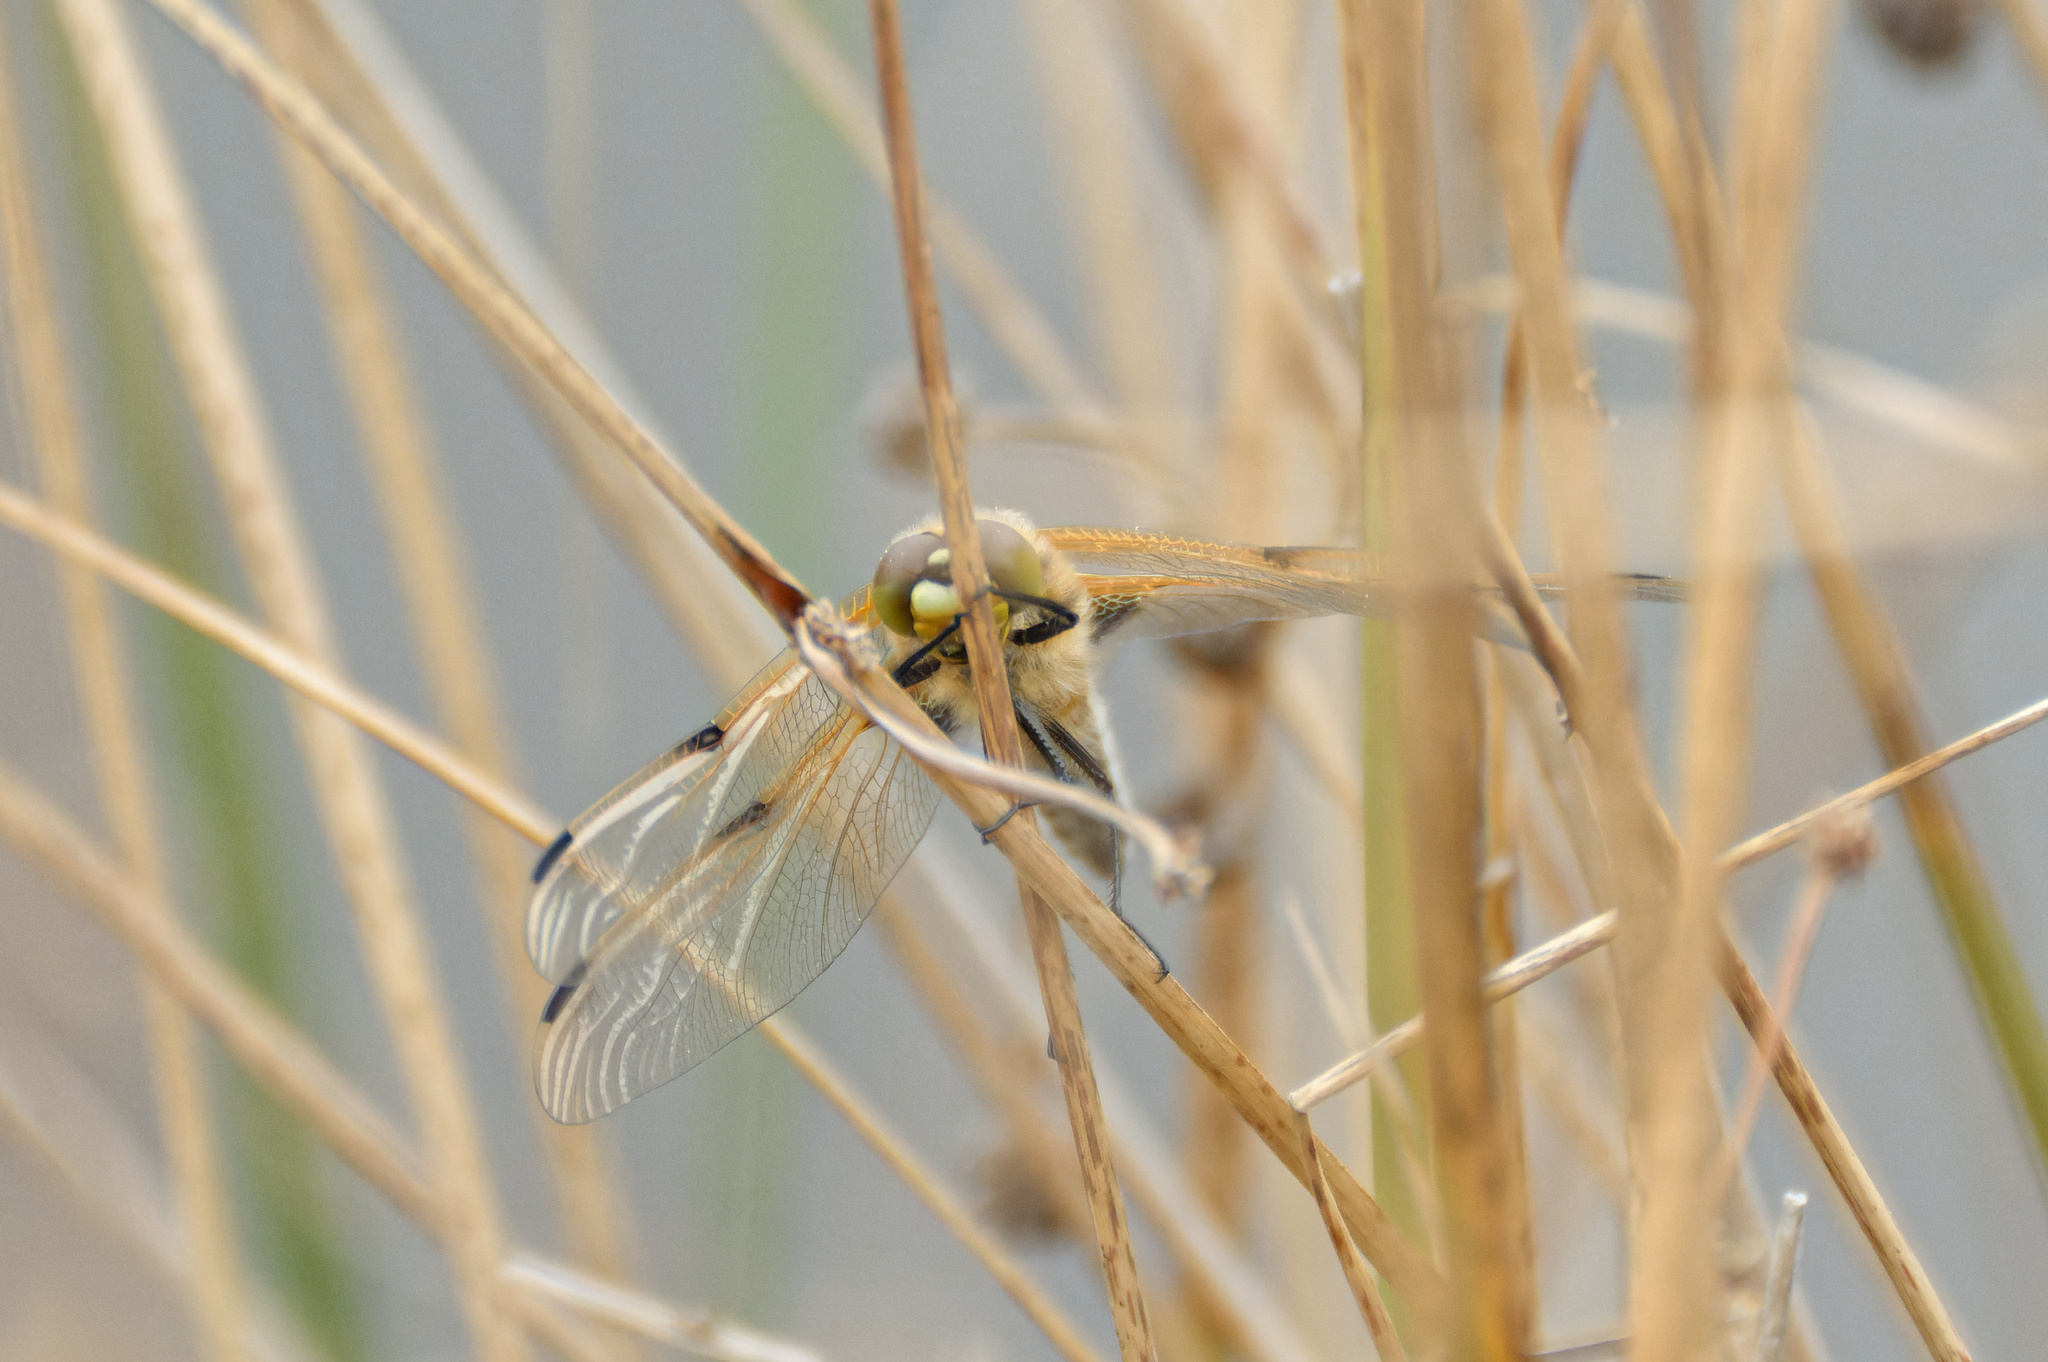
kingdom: Animalia
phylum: Arthropoda
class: Insecta
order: Odonata
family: Libellulidae
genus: Libellula
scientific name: Libellula quadrimaculata
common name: Four-spotted chaser
